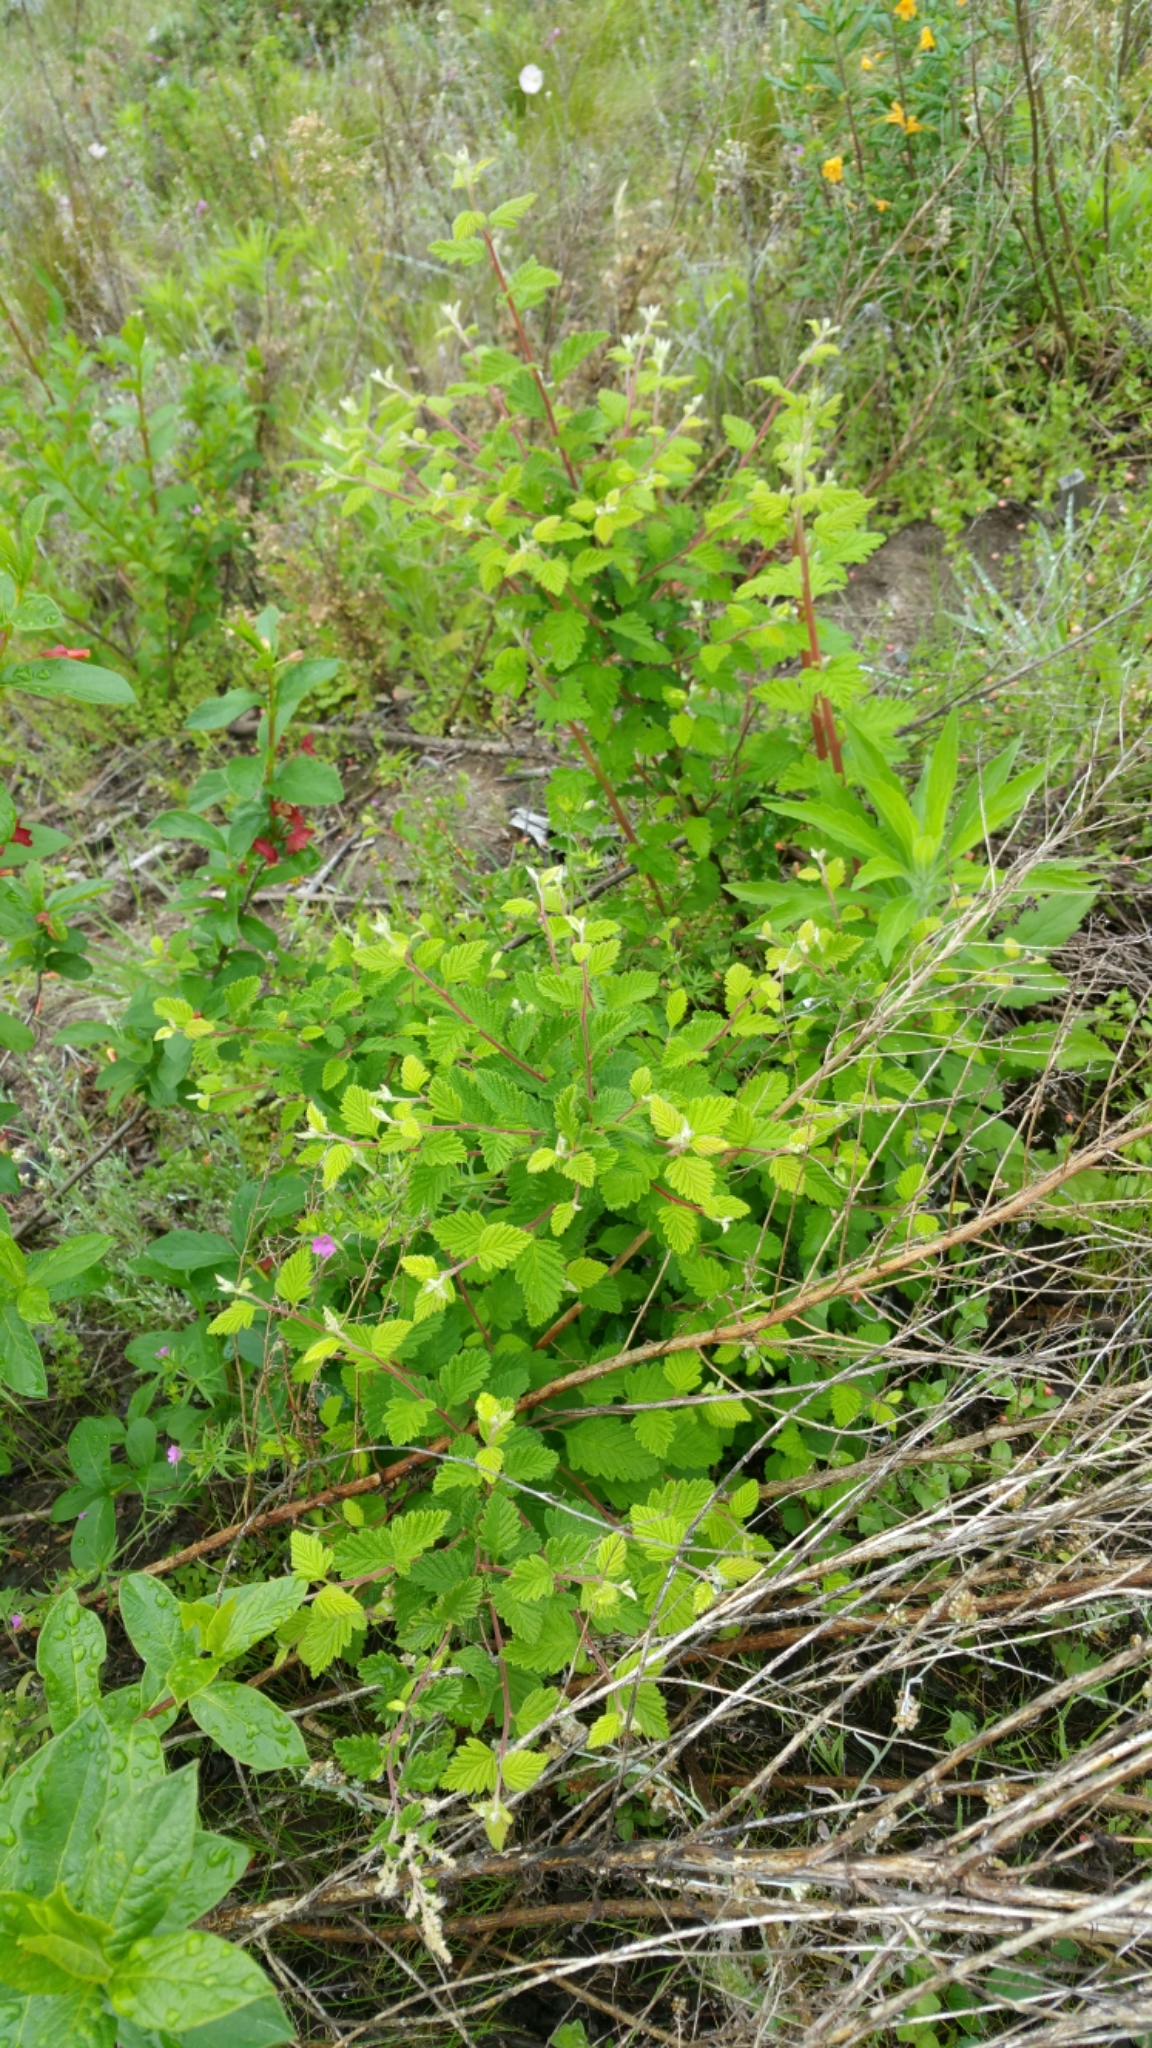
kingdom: Plantae
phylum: Tracheophyta
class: Magnoliopsida
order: Rosales
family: Rosaceae
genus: Holodiscus
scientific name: Holodiscus discolor
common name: Oceanspray
